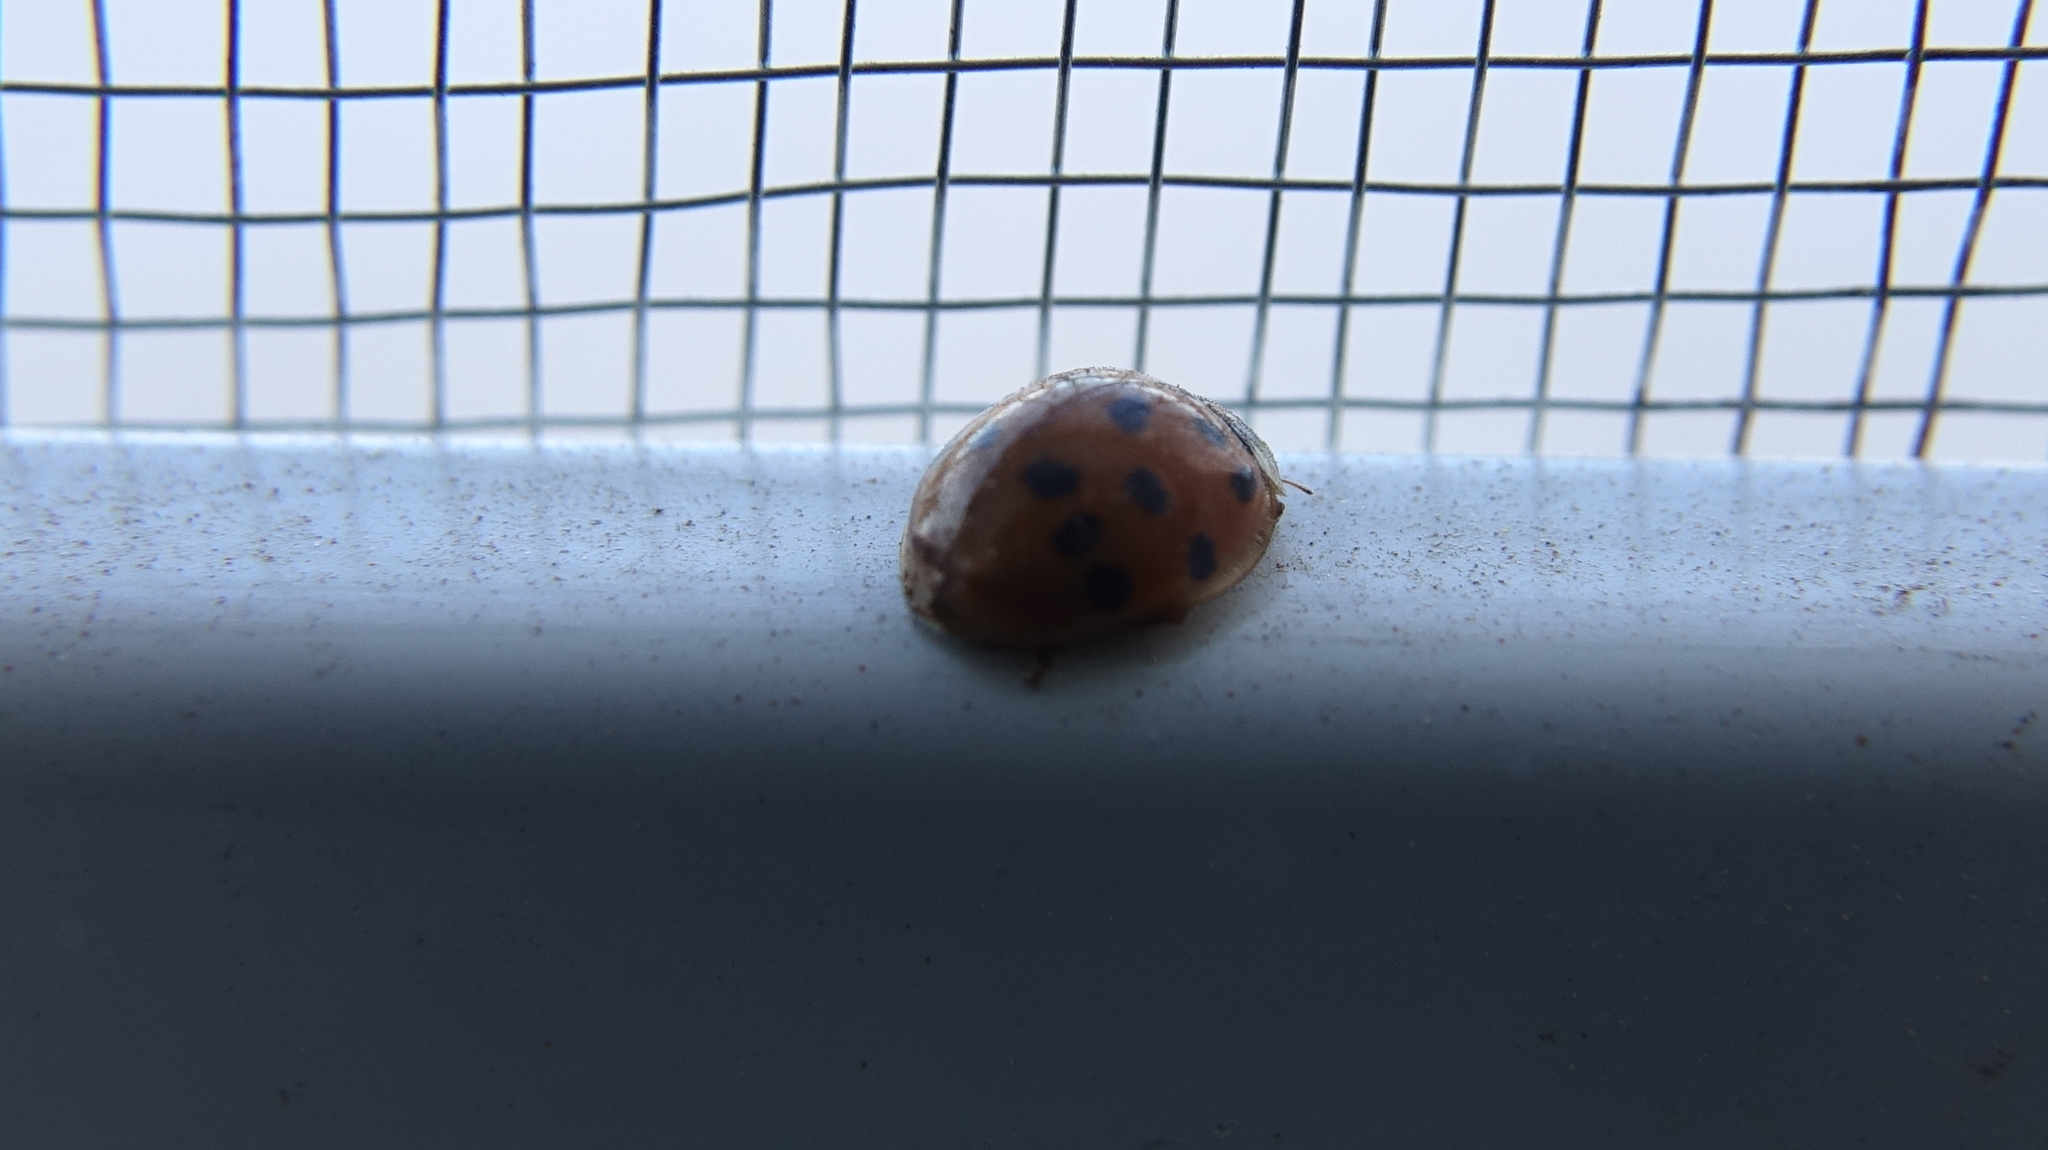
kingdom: Animalia
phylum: Arthropoda
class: Insecta
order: Coleoptera
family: Coccinellidae
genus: Harmonia
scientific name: Harmonia axyridis
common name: Harlequin ladybird
